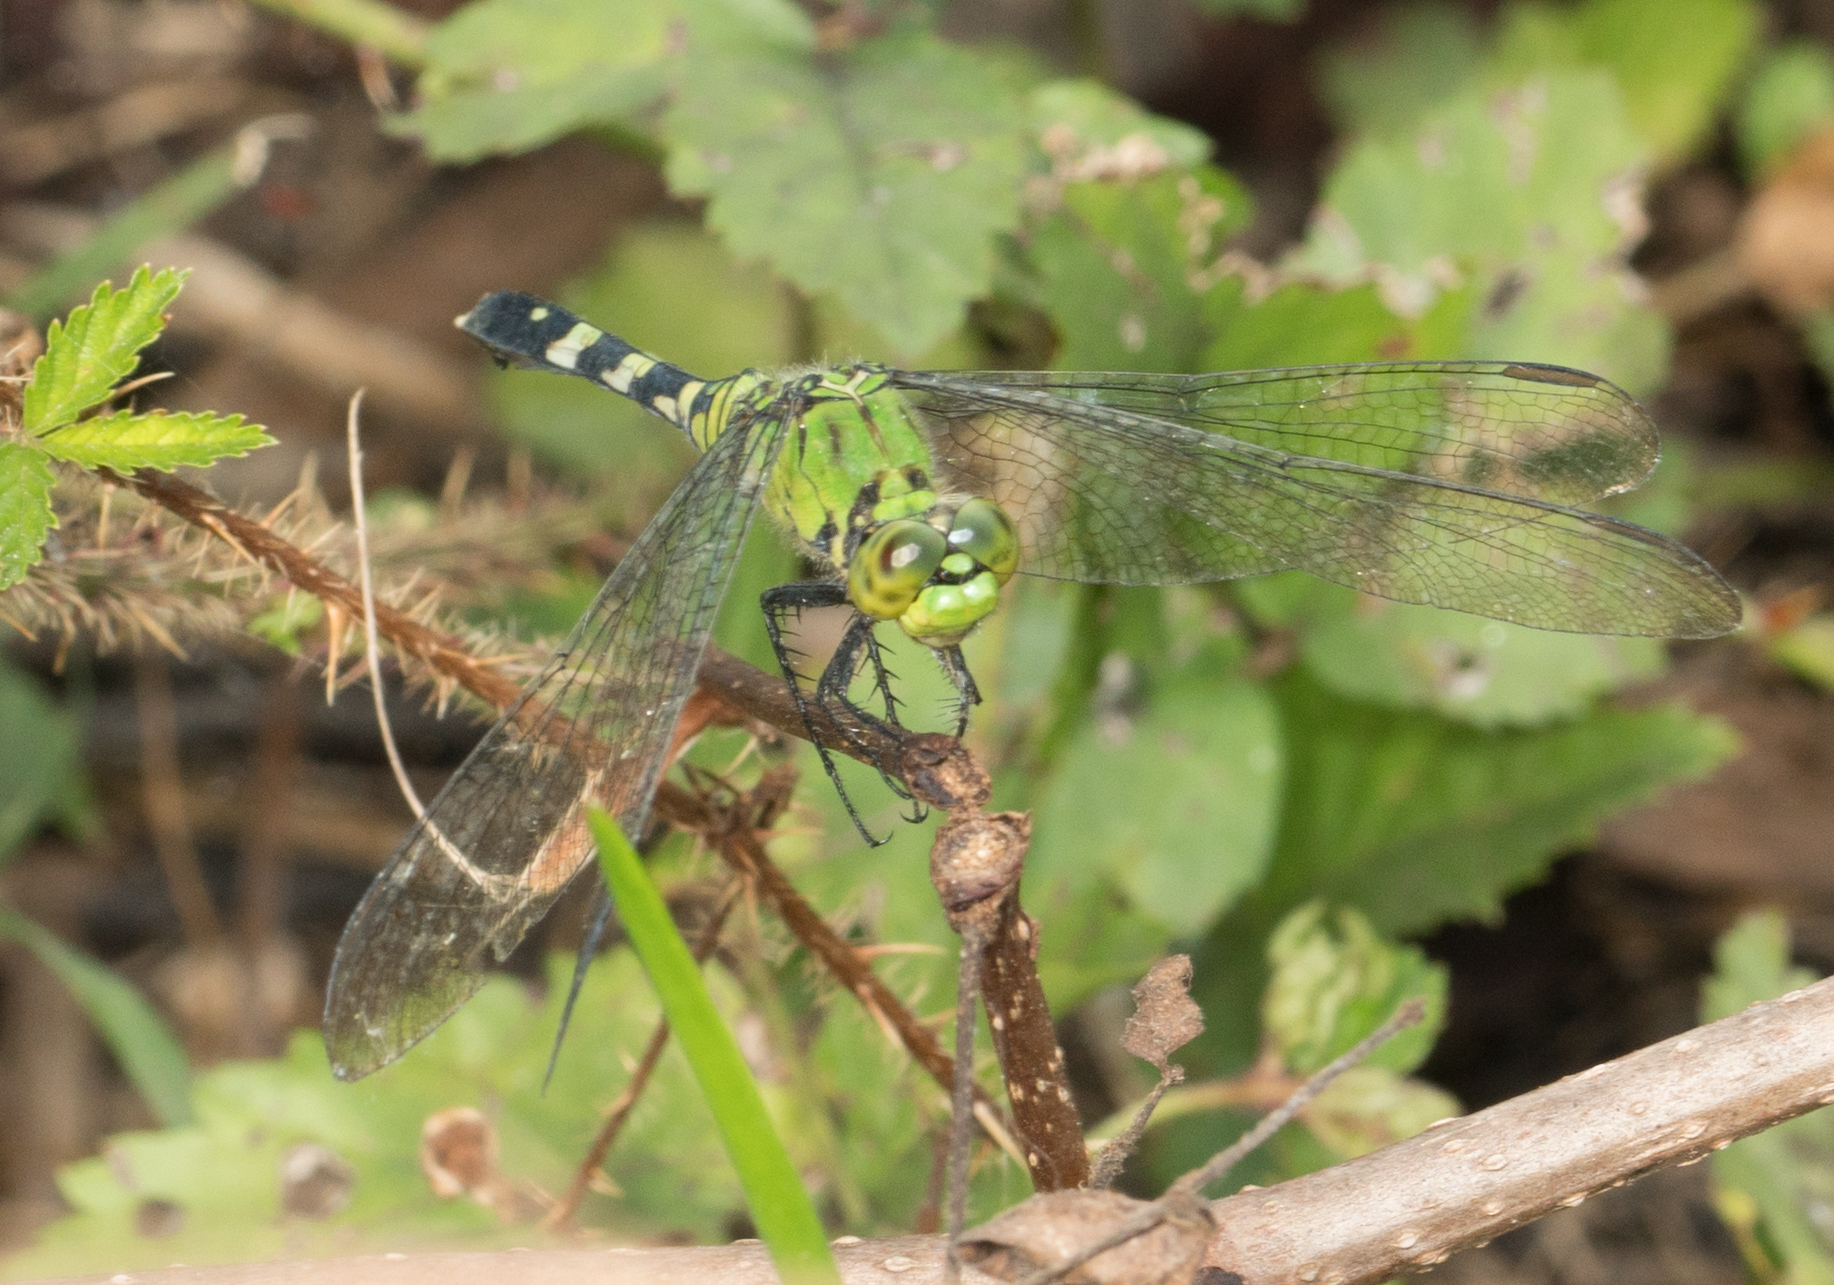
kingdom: Animalia
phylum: Arthropoda
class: Insecta
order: Odonata
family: Libellulidae
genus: Erythemis
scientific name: Erythemis simplicicollis
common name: Eastern pondhawk
